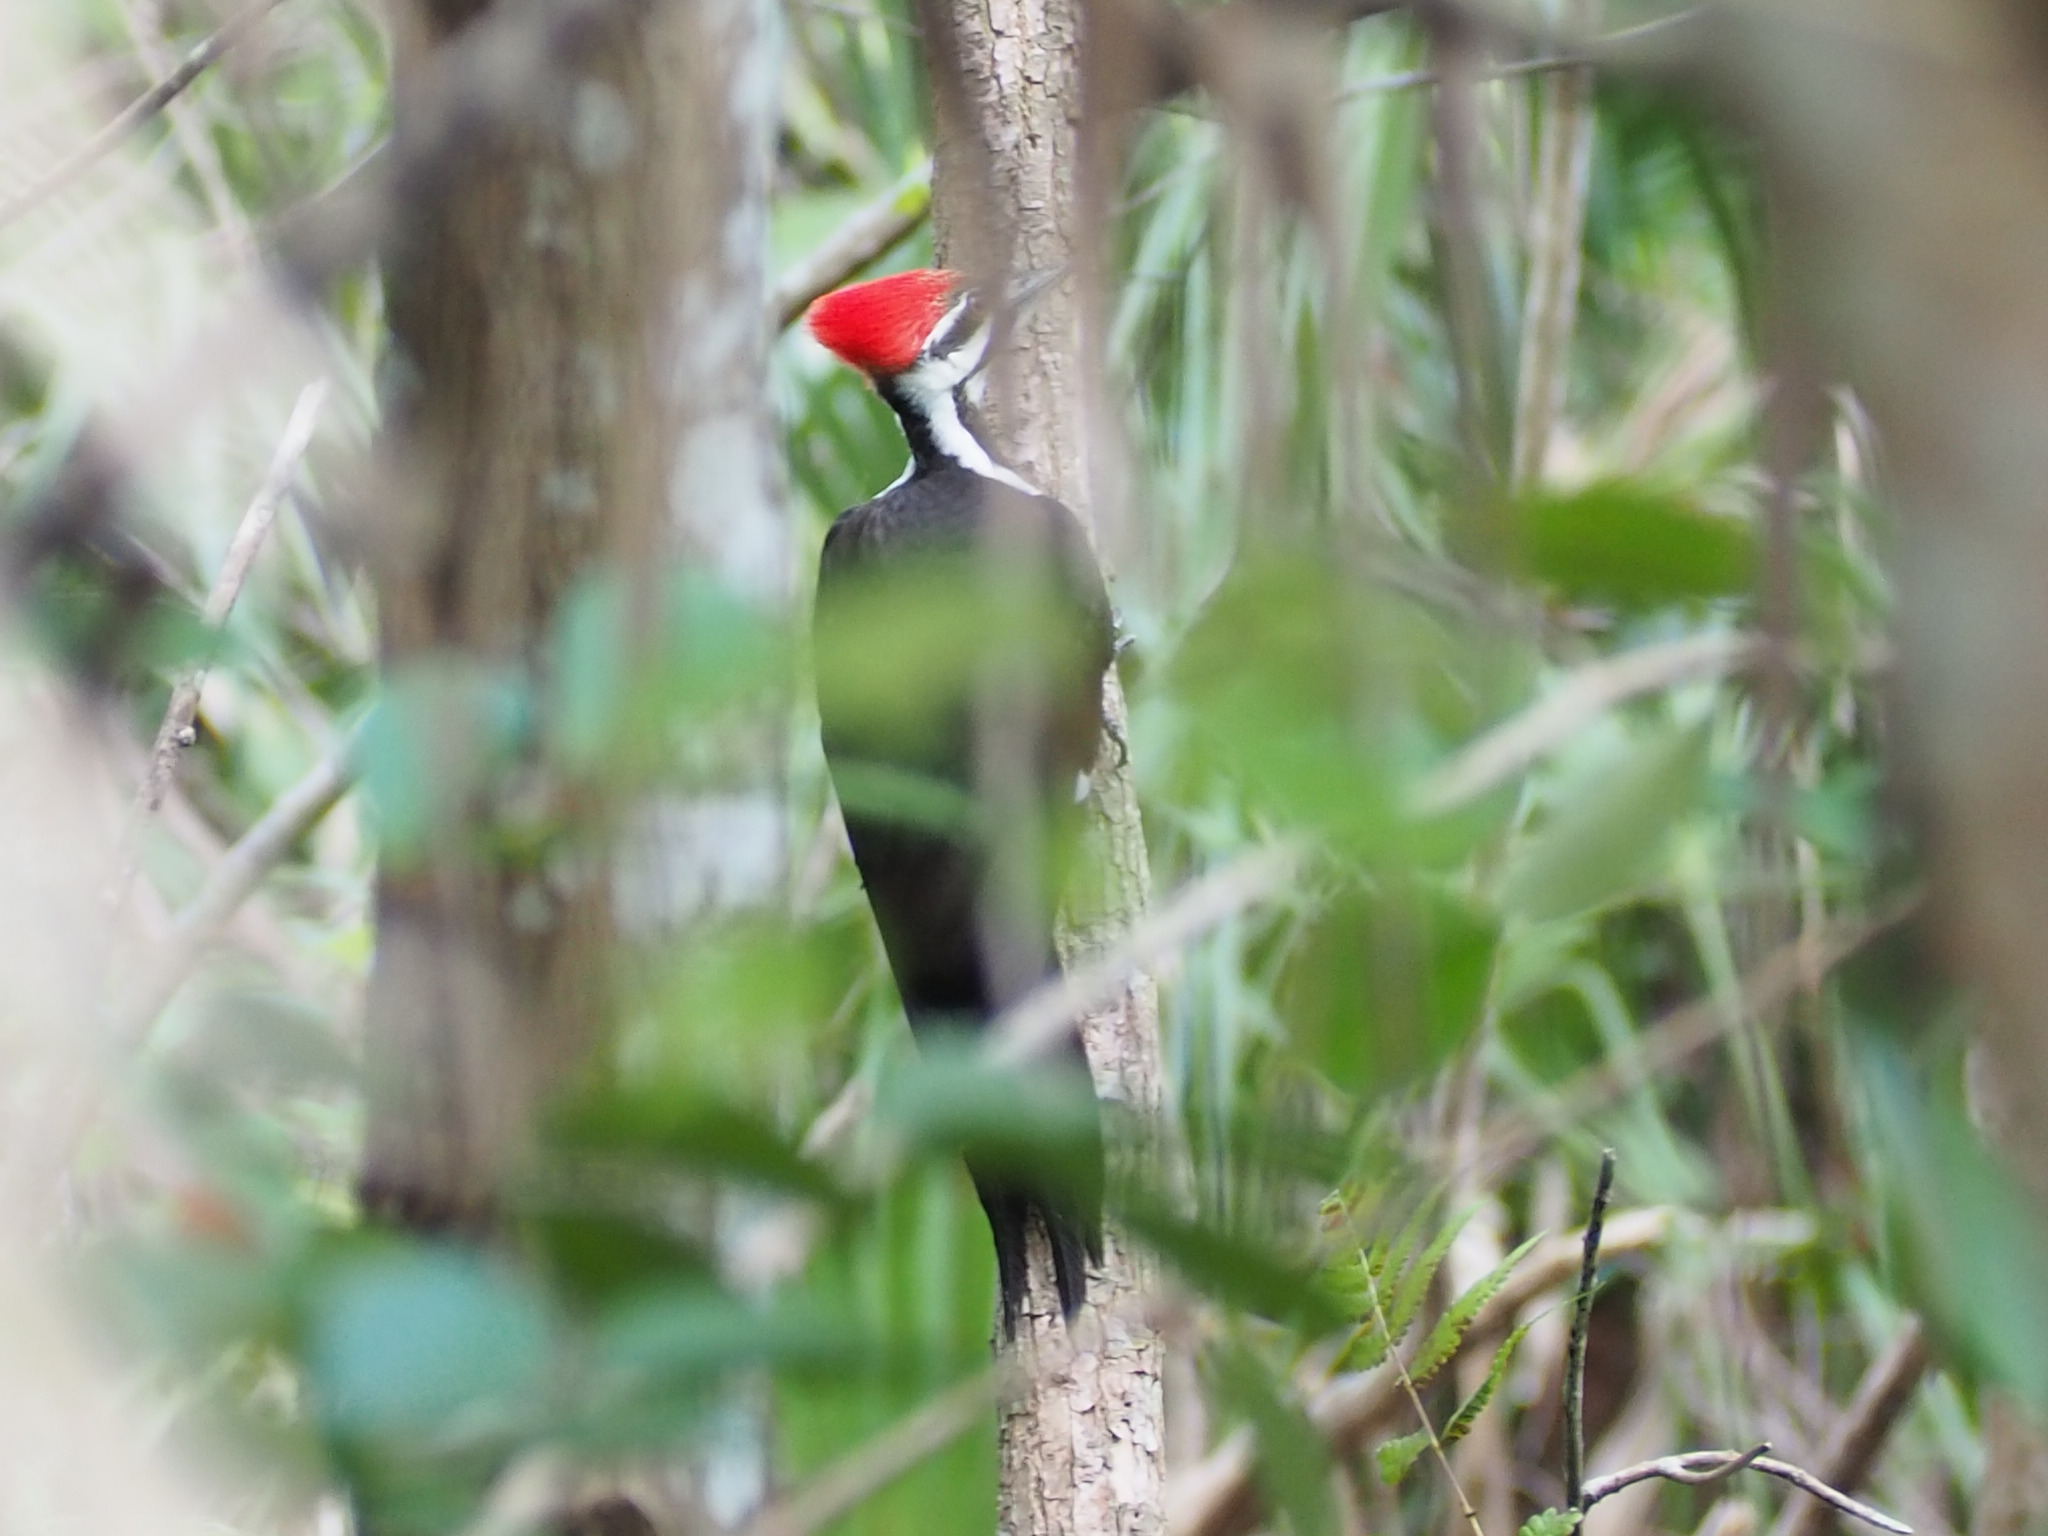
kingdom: Animalia
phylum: Chordata
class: Aves
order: Piciformes
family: Picidae
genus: Dryocopus
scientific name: Dryocopus pileatus
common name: Pileated woodpecker
